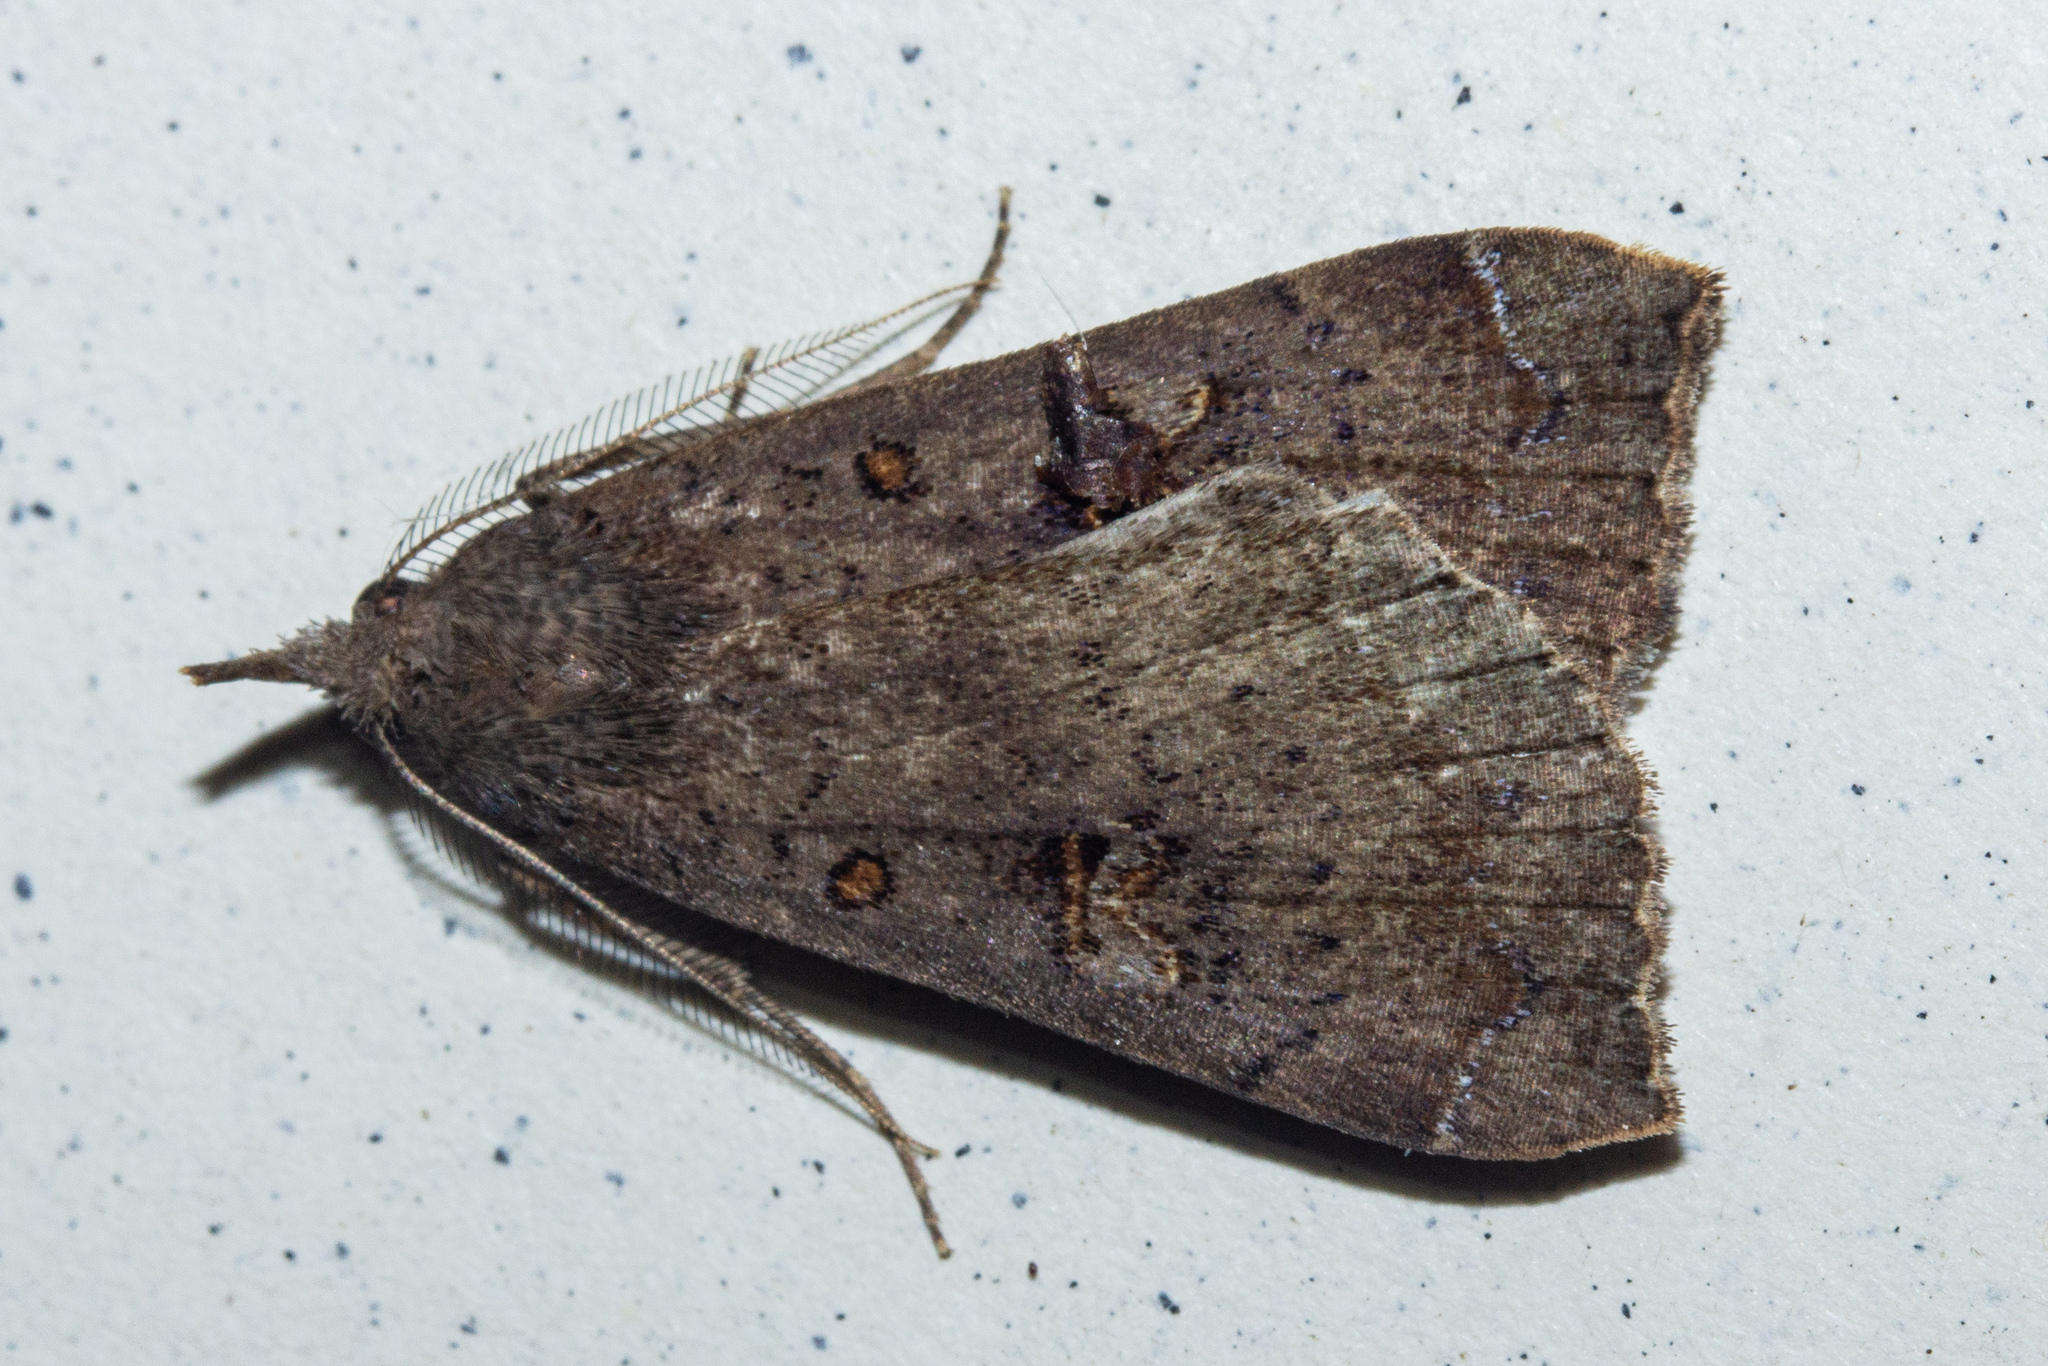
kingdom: Animalia
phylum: Arthropoda
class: Insecta
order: Lepidoptera
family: Erebidae
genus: Rhapsa
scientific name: Rhapsa scotosialis
